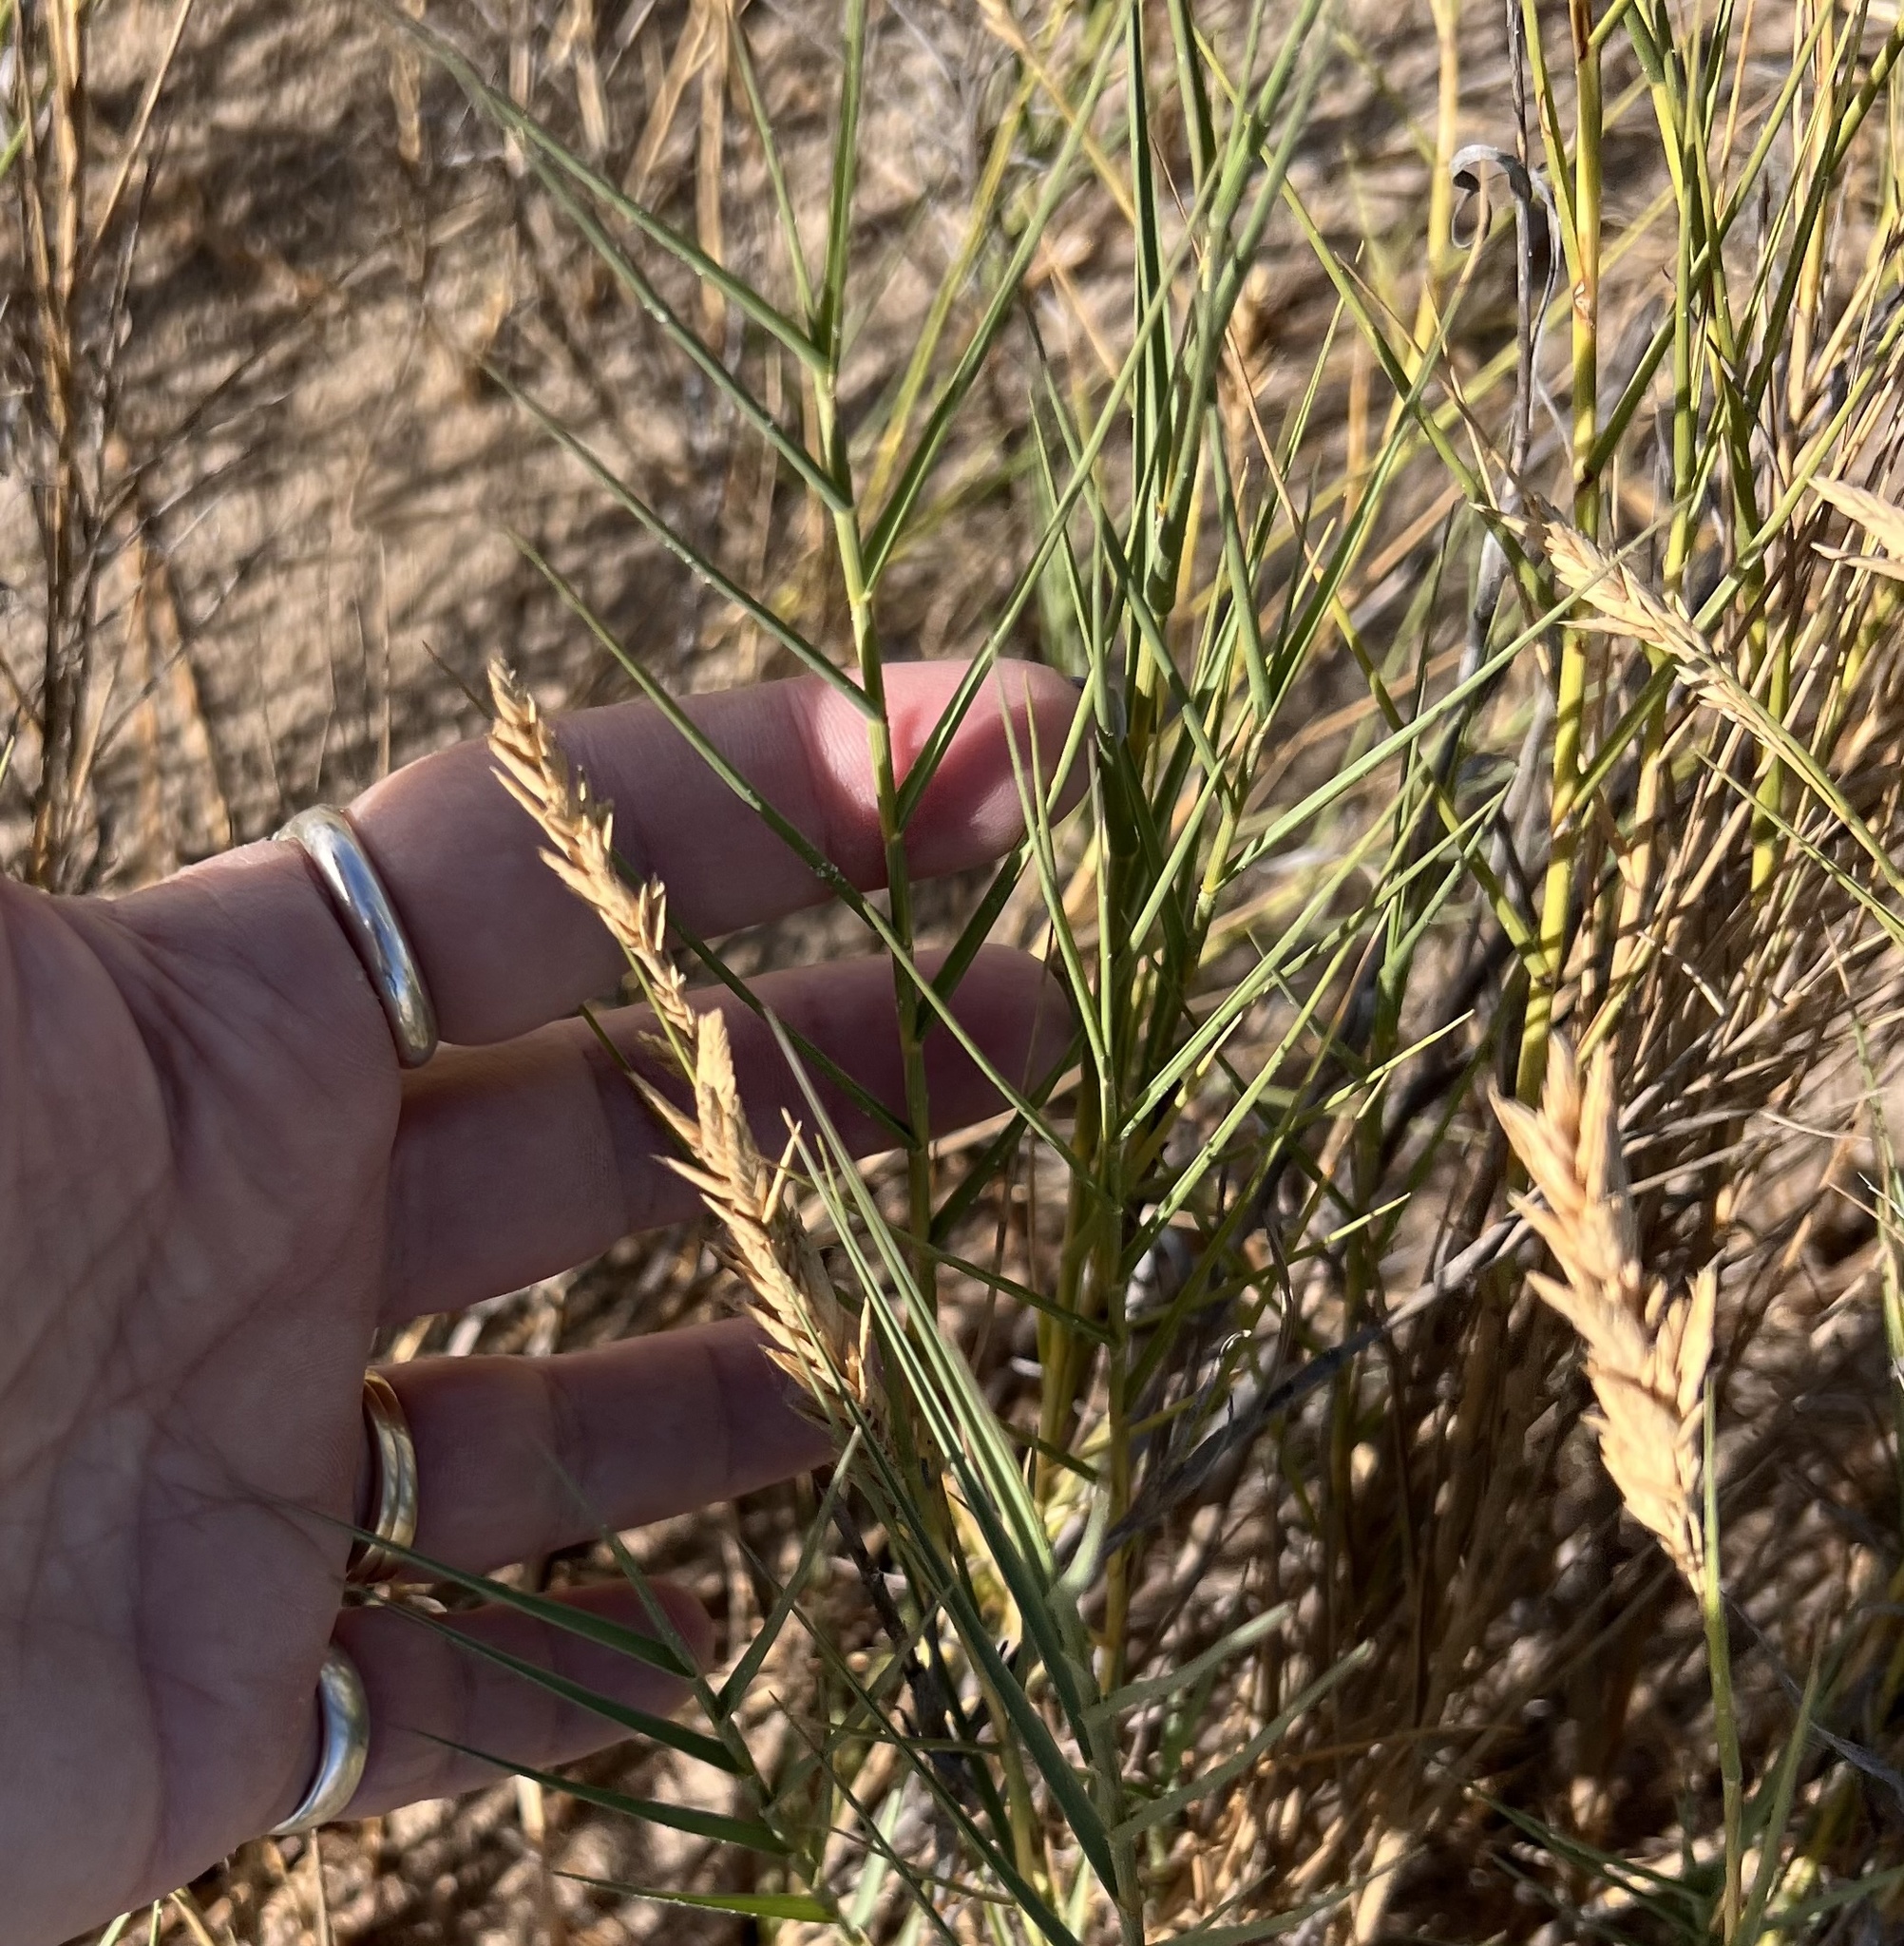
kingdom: Plantae
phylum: Tracheophyta
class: Liliopsida
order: Poales
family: Poaceae
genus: Distichlis
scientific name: Distichlis spicata
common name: Saltgrass
